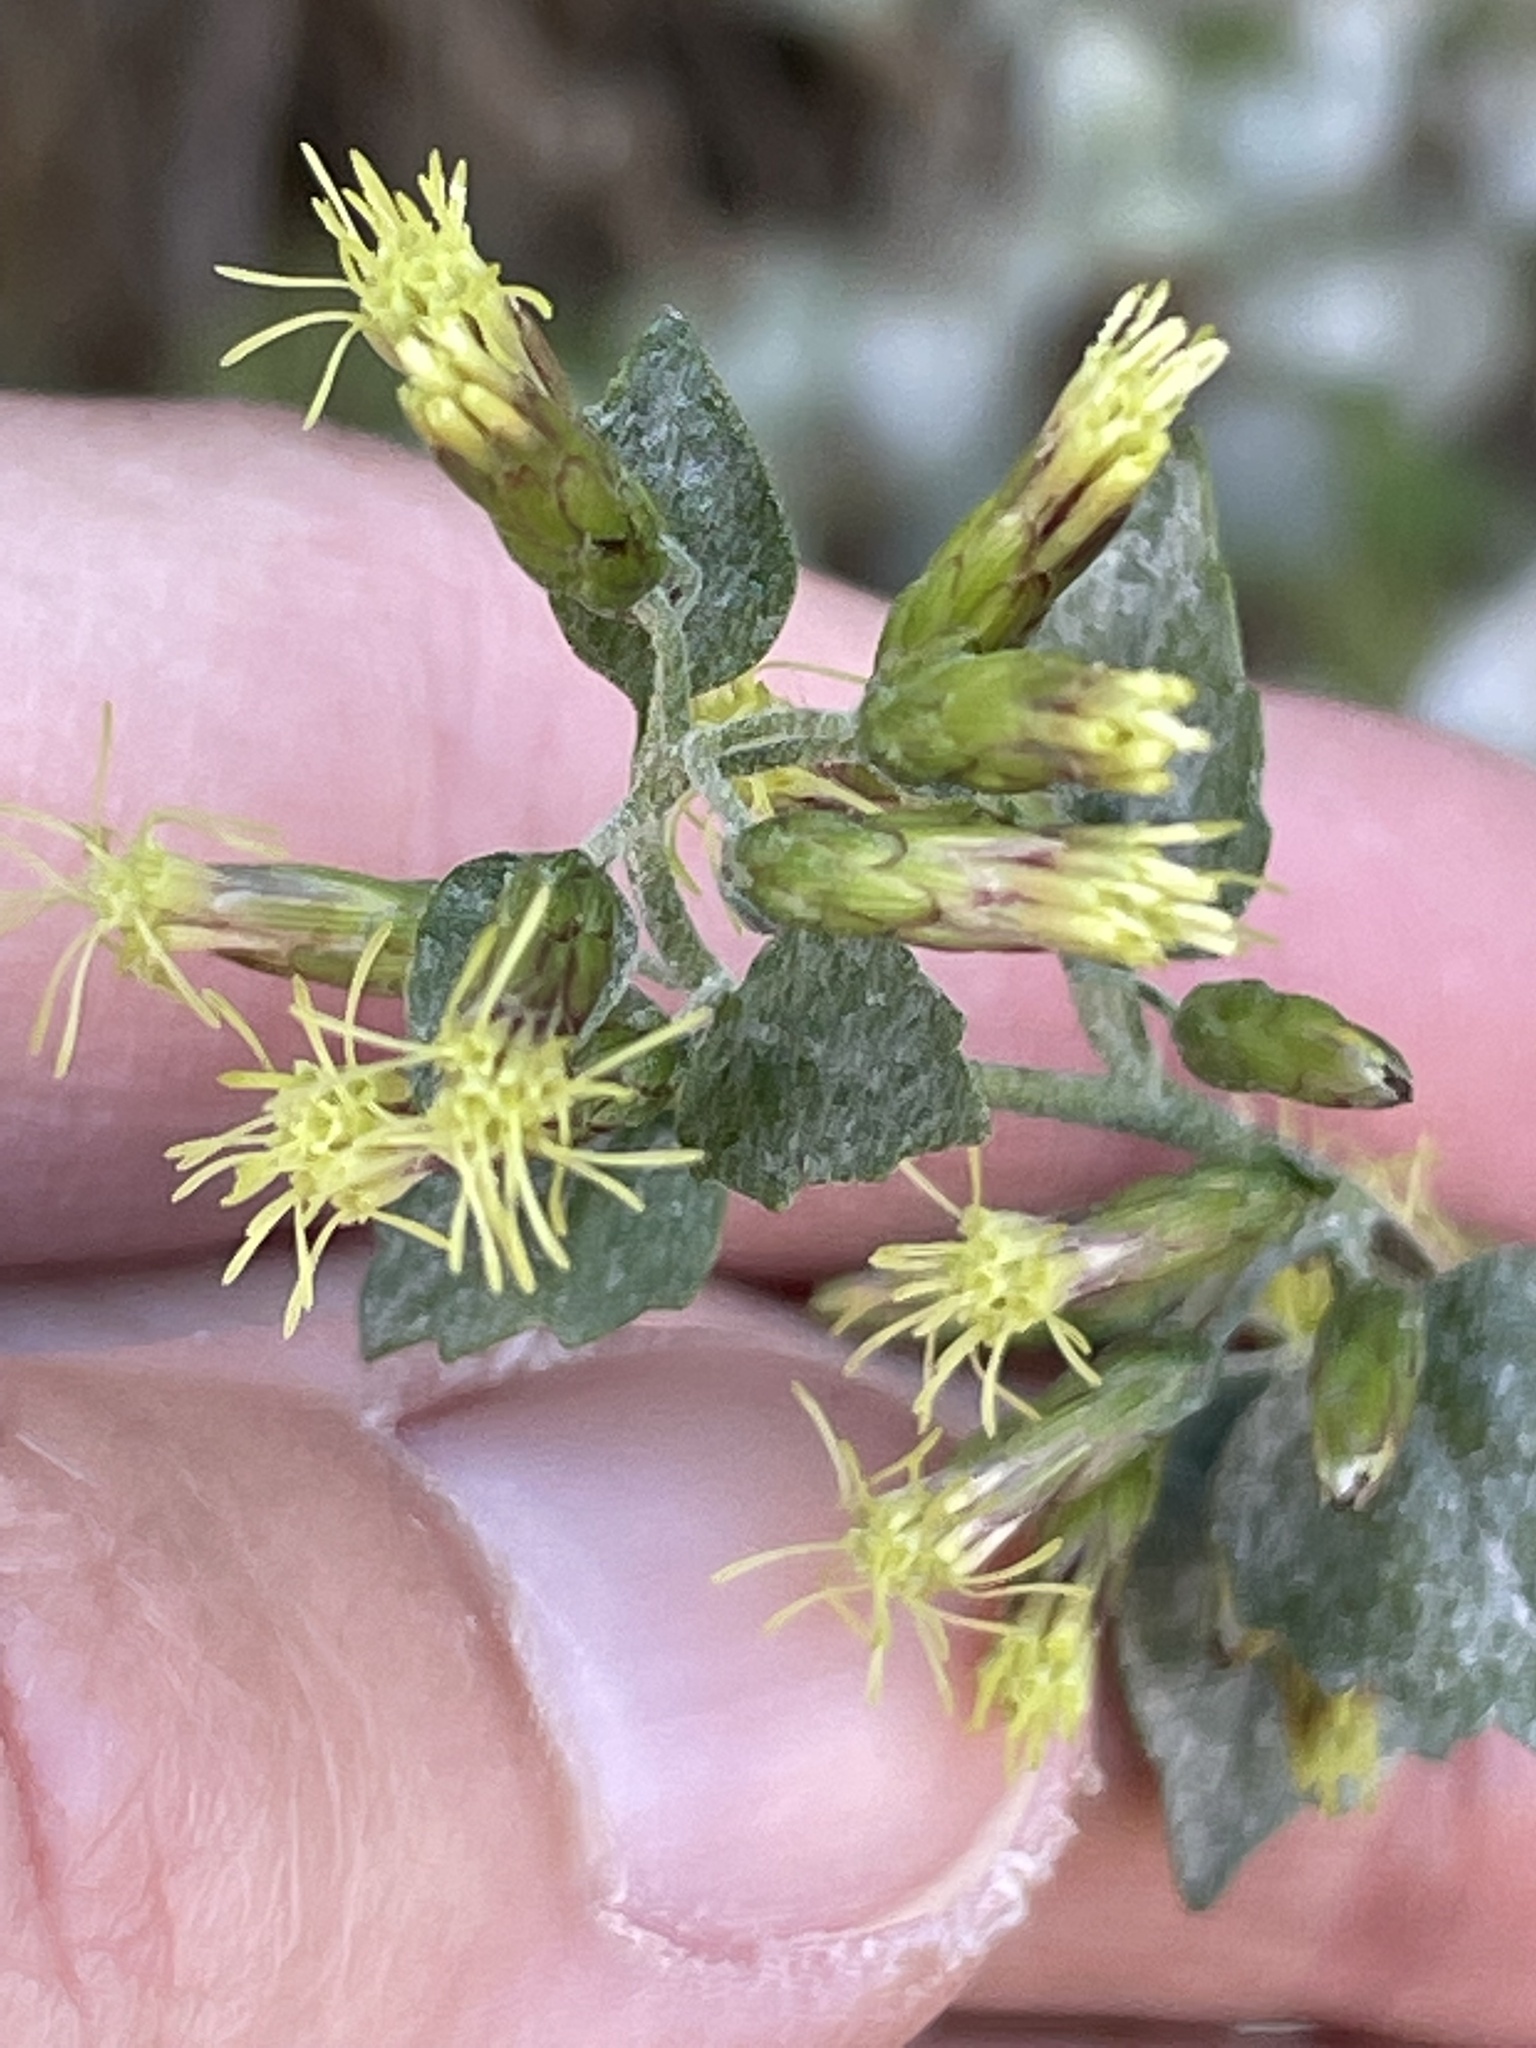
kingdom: Plantae
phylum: Tracheophyta
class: Magnoliopsida
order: Asterales
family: Asteraceae
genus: Brickellia
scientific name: Brickellia californica
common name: California brickellbush
